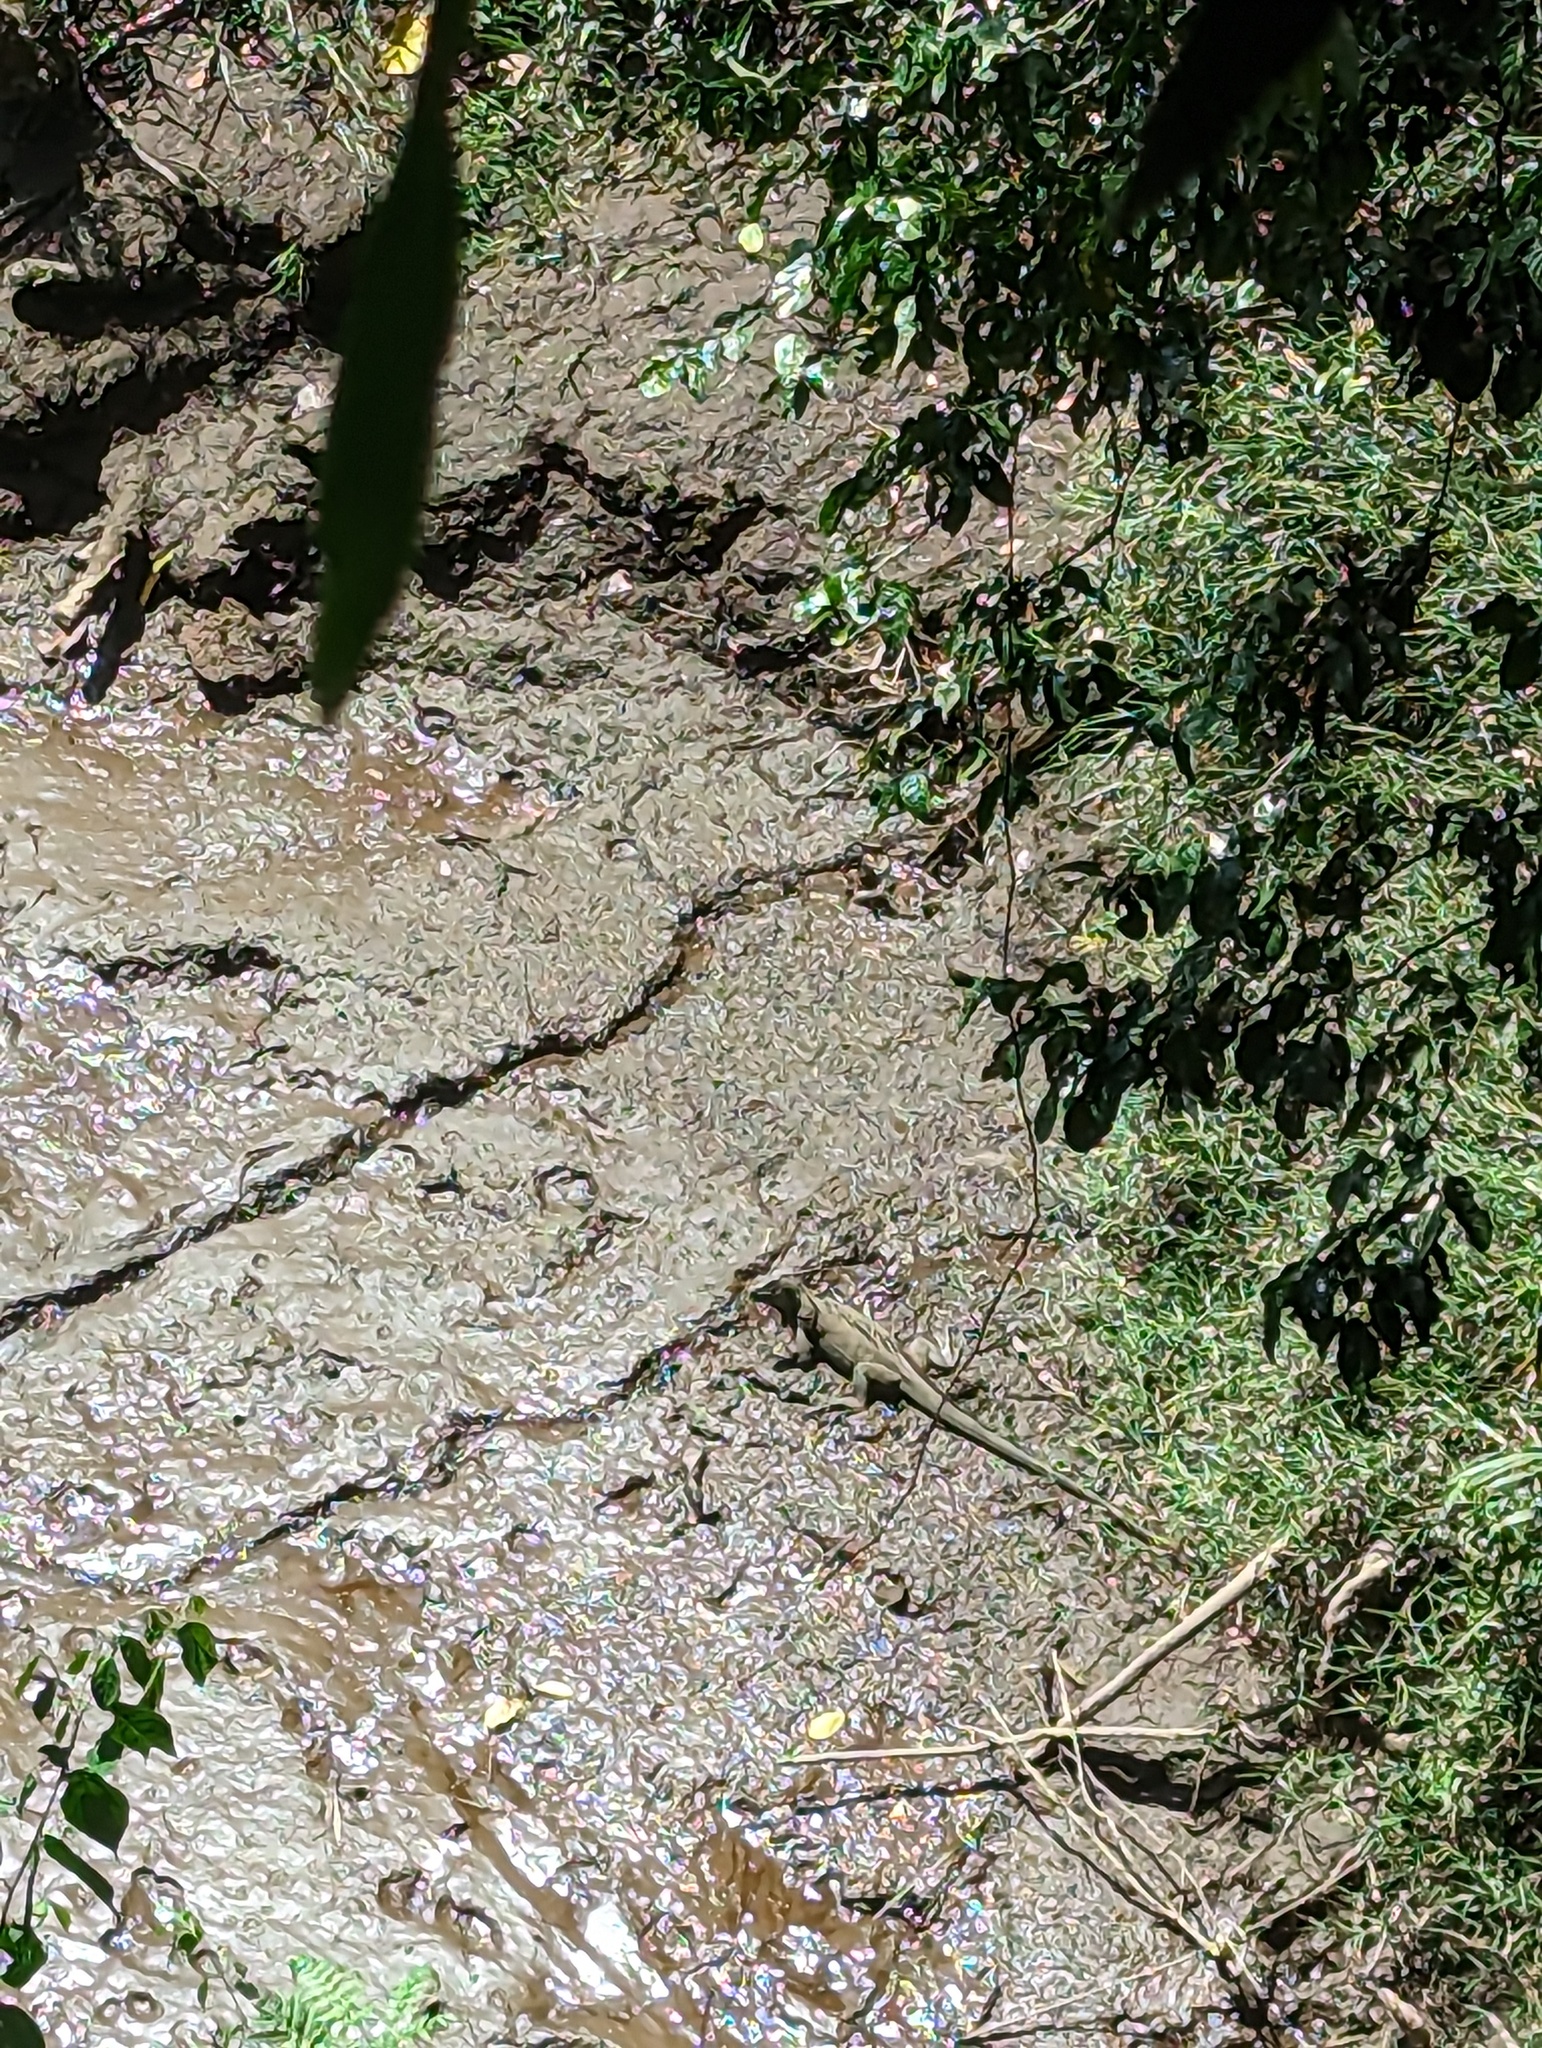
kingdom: Animalia
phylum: Chordata
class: Squamata
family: Iguanidae
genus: Iguana
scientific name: Iguana iguana
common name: Green iguana
